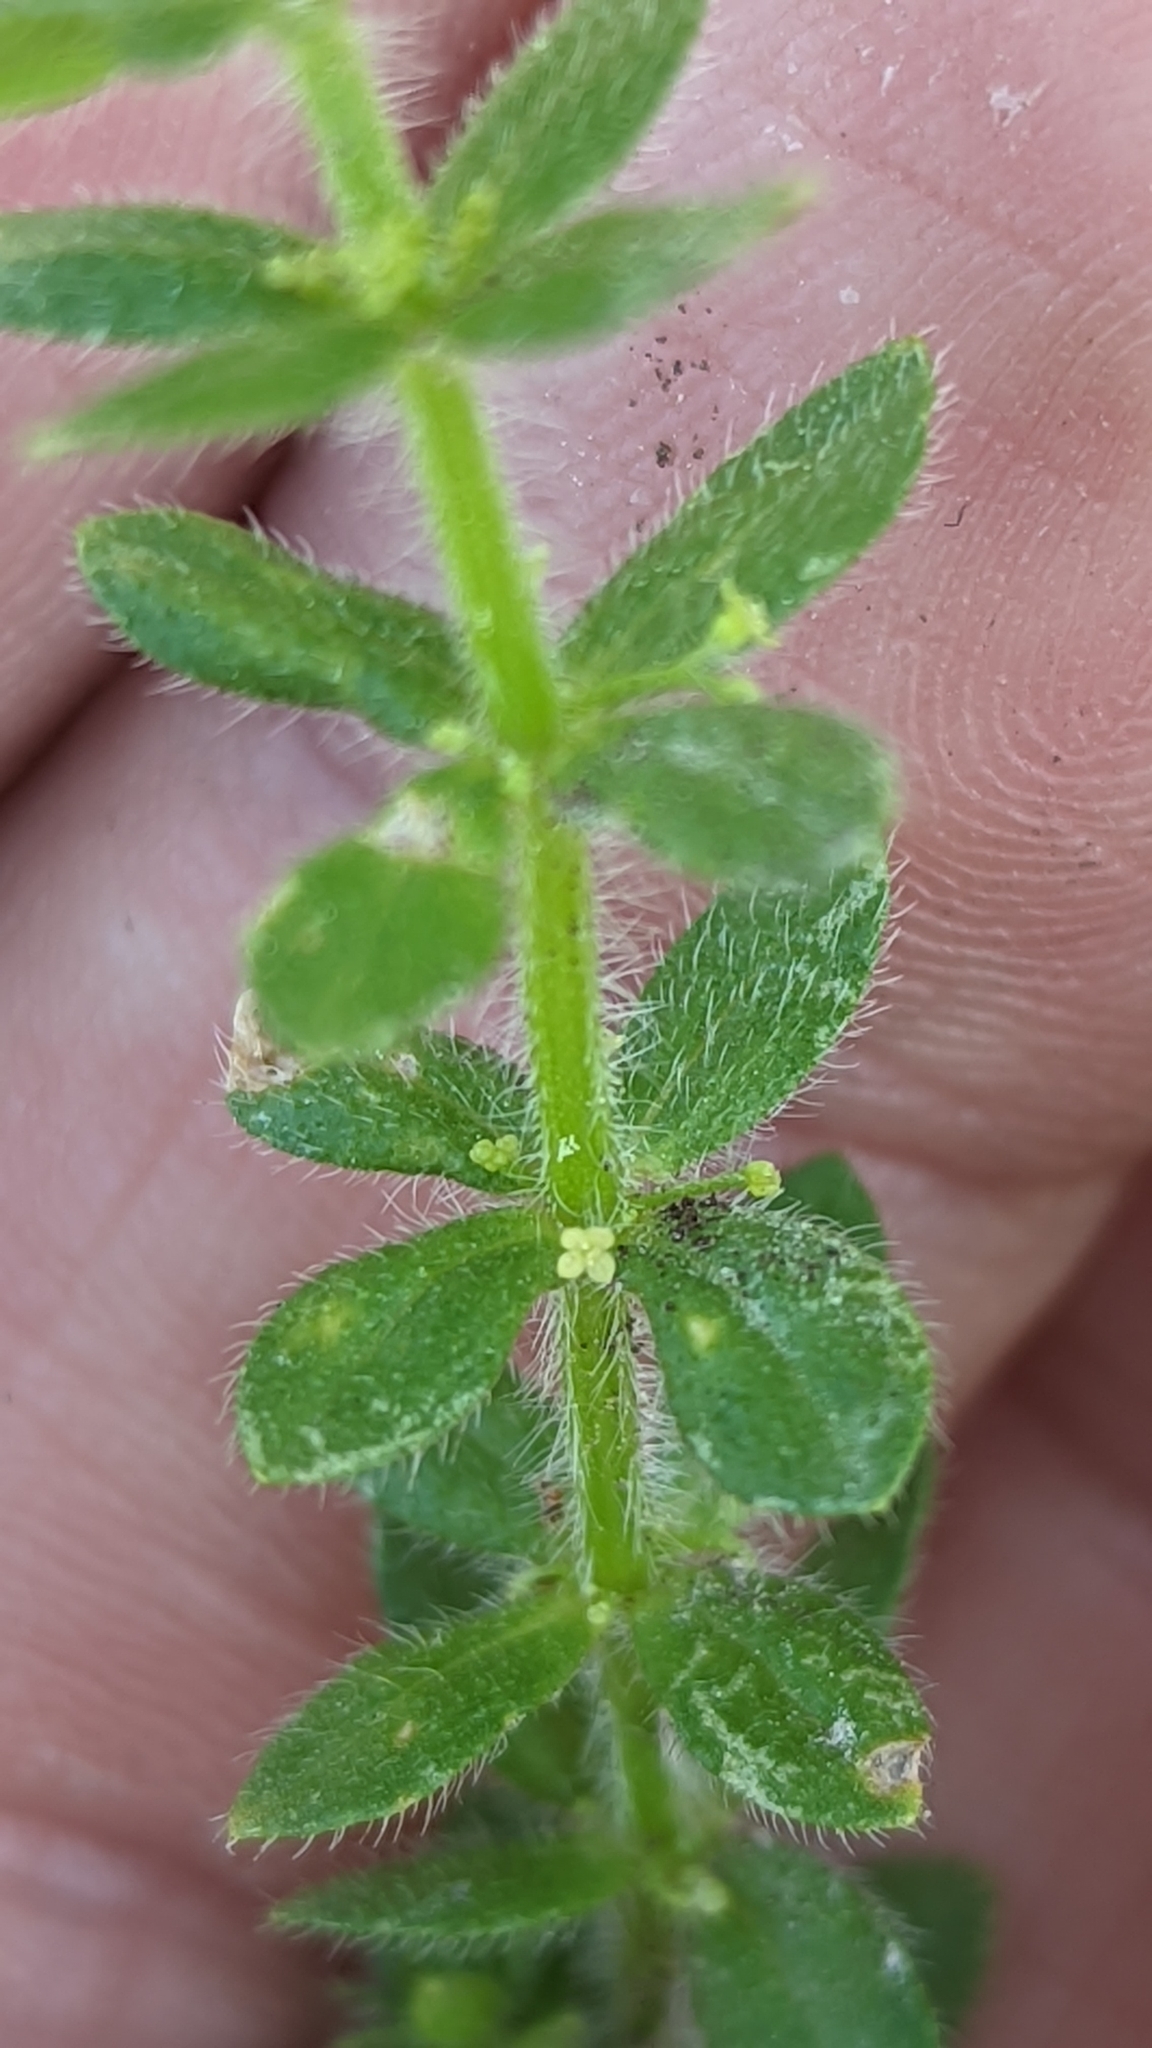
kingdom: Plantae
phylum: Tracheophyta
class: Magnoliopsida
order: Gentianales
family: Rubiaceae
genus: Cruciata
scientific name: Cruciata pedemontana
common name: Piedmont bedstraw
